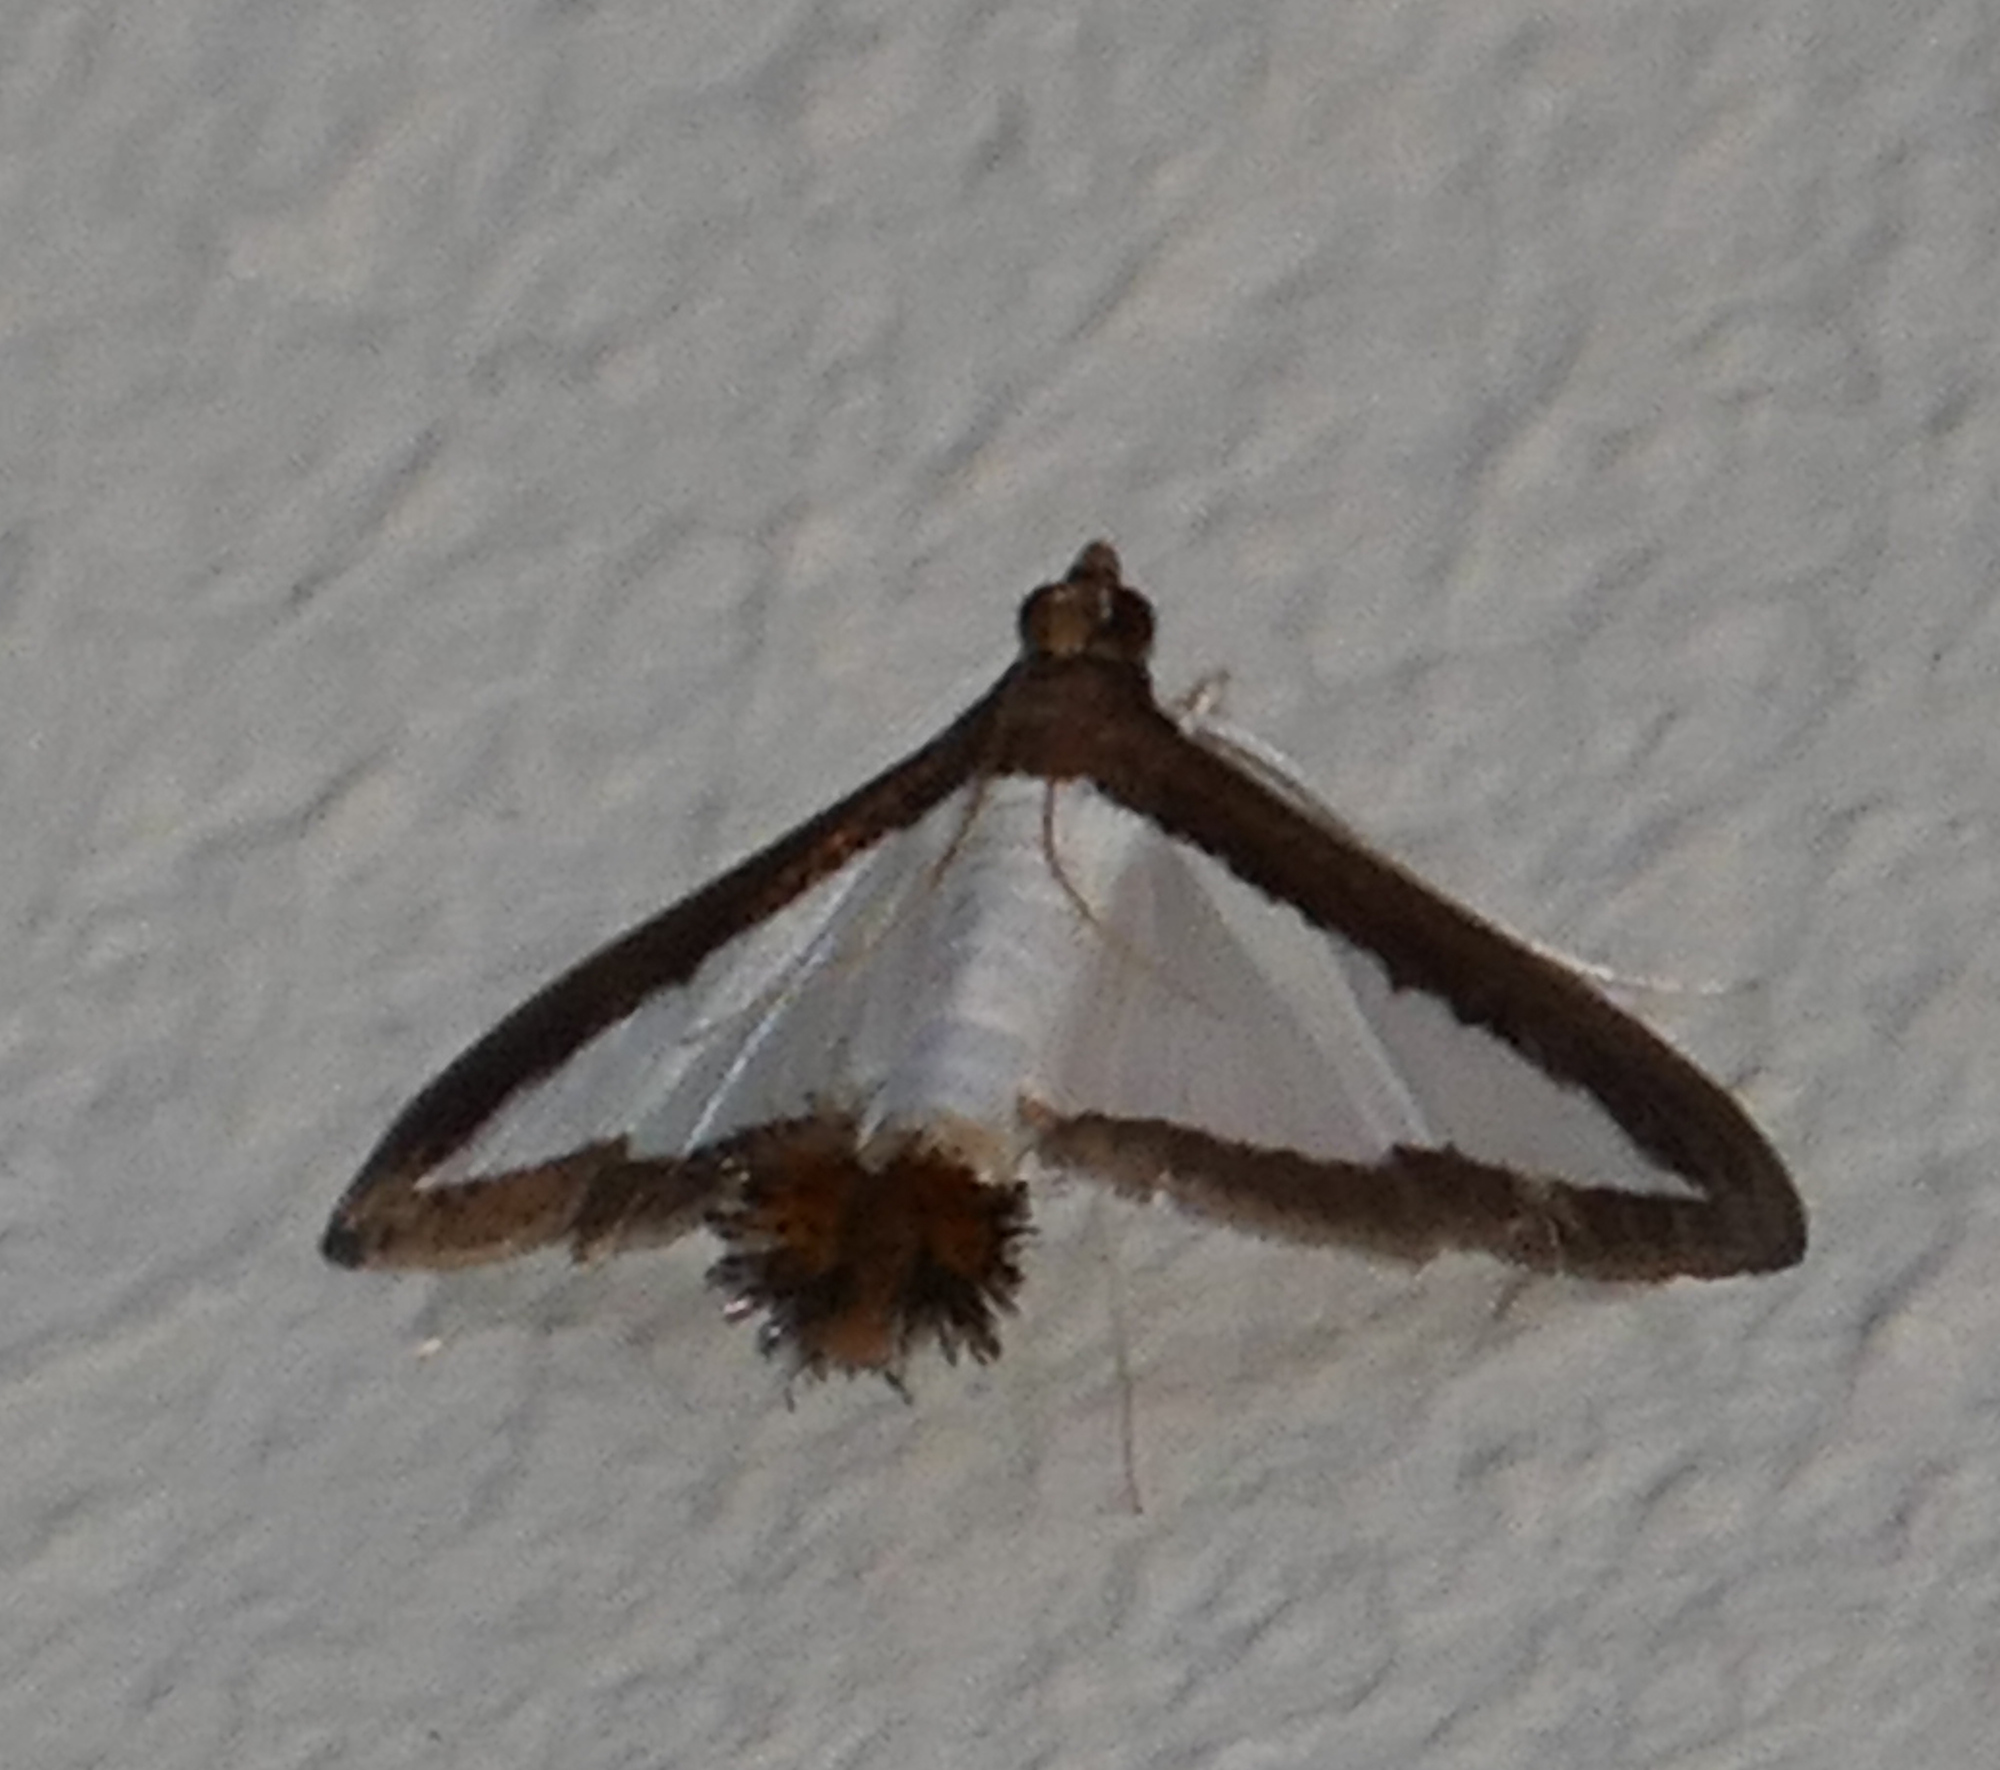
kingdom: Animalia
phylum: Arthropoda
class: Insecta
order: Lepidoptera
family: Crambidae
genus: Diaphania
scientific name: Diaphania hyalinata
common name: Melonworm
